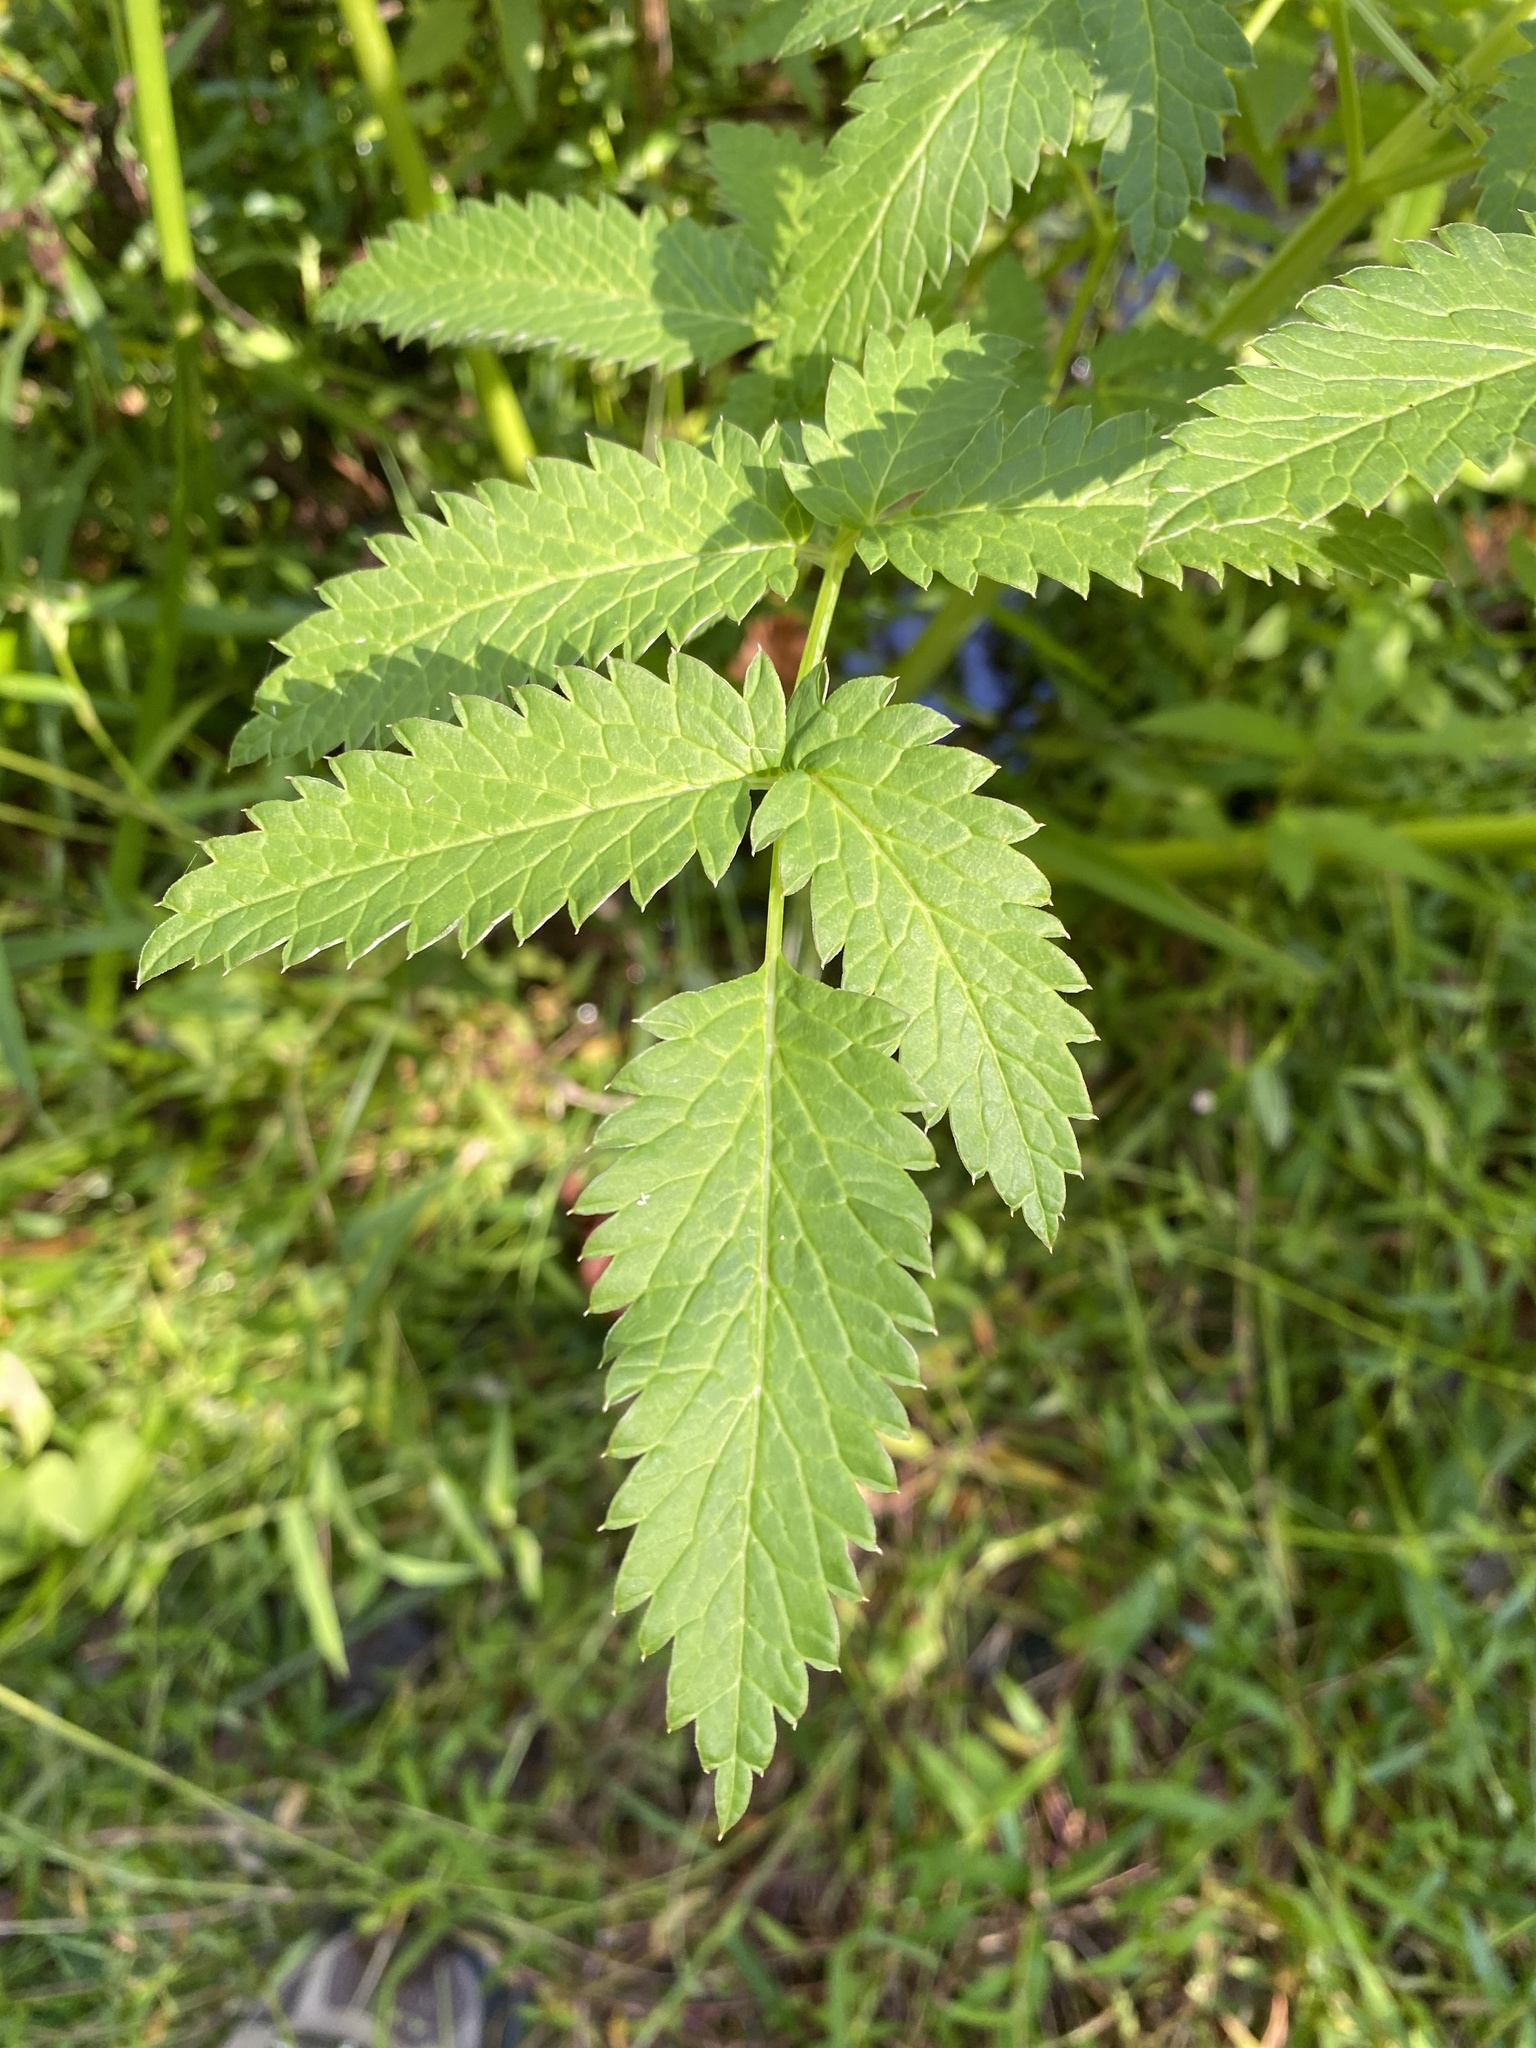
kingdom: Plantae
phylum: Tracheophyta
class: Magnoliopsida
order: Apiales
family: Apiaceae
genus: Cicuta
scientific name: Cicuta maculata
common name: Spotted cowbane
